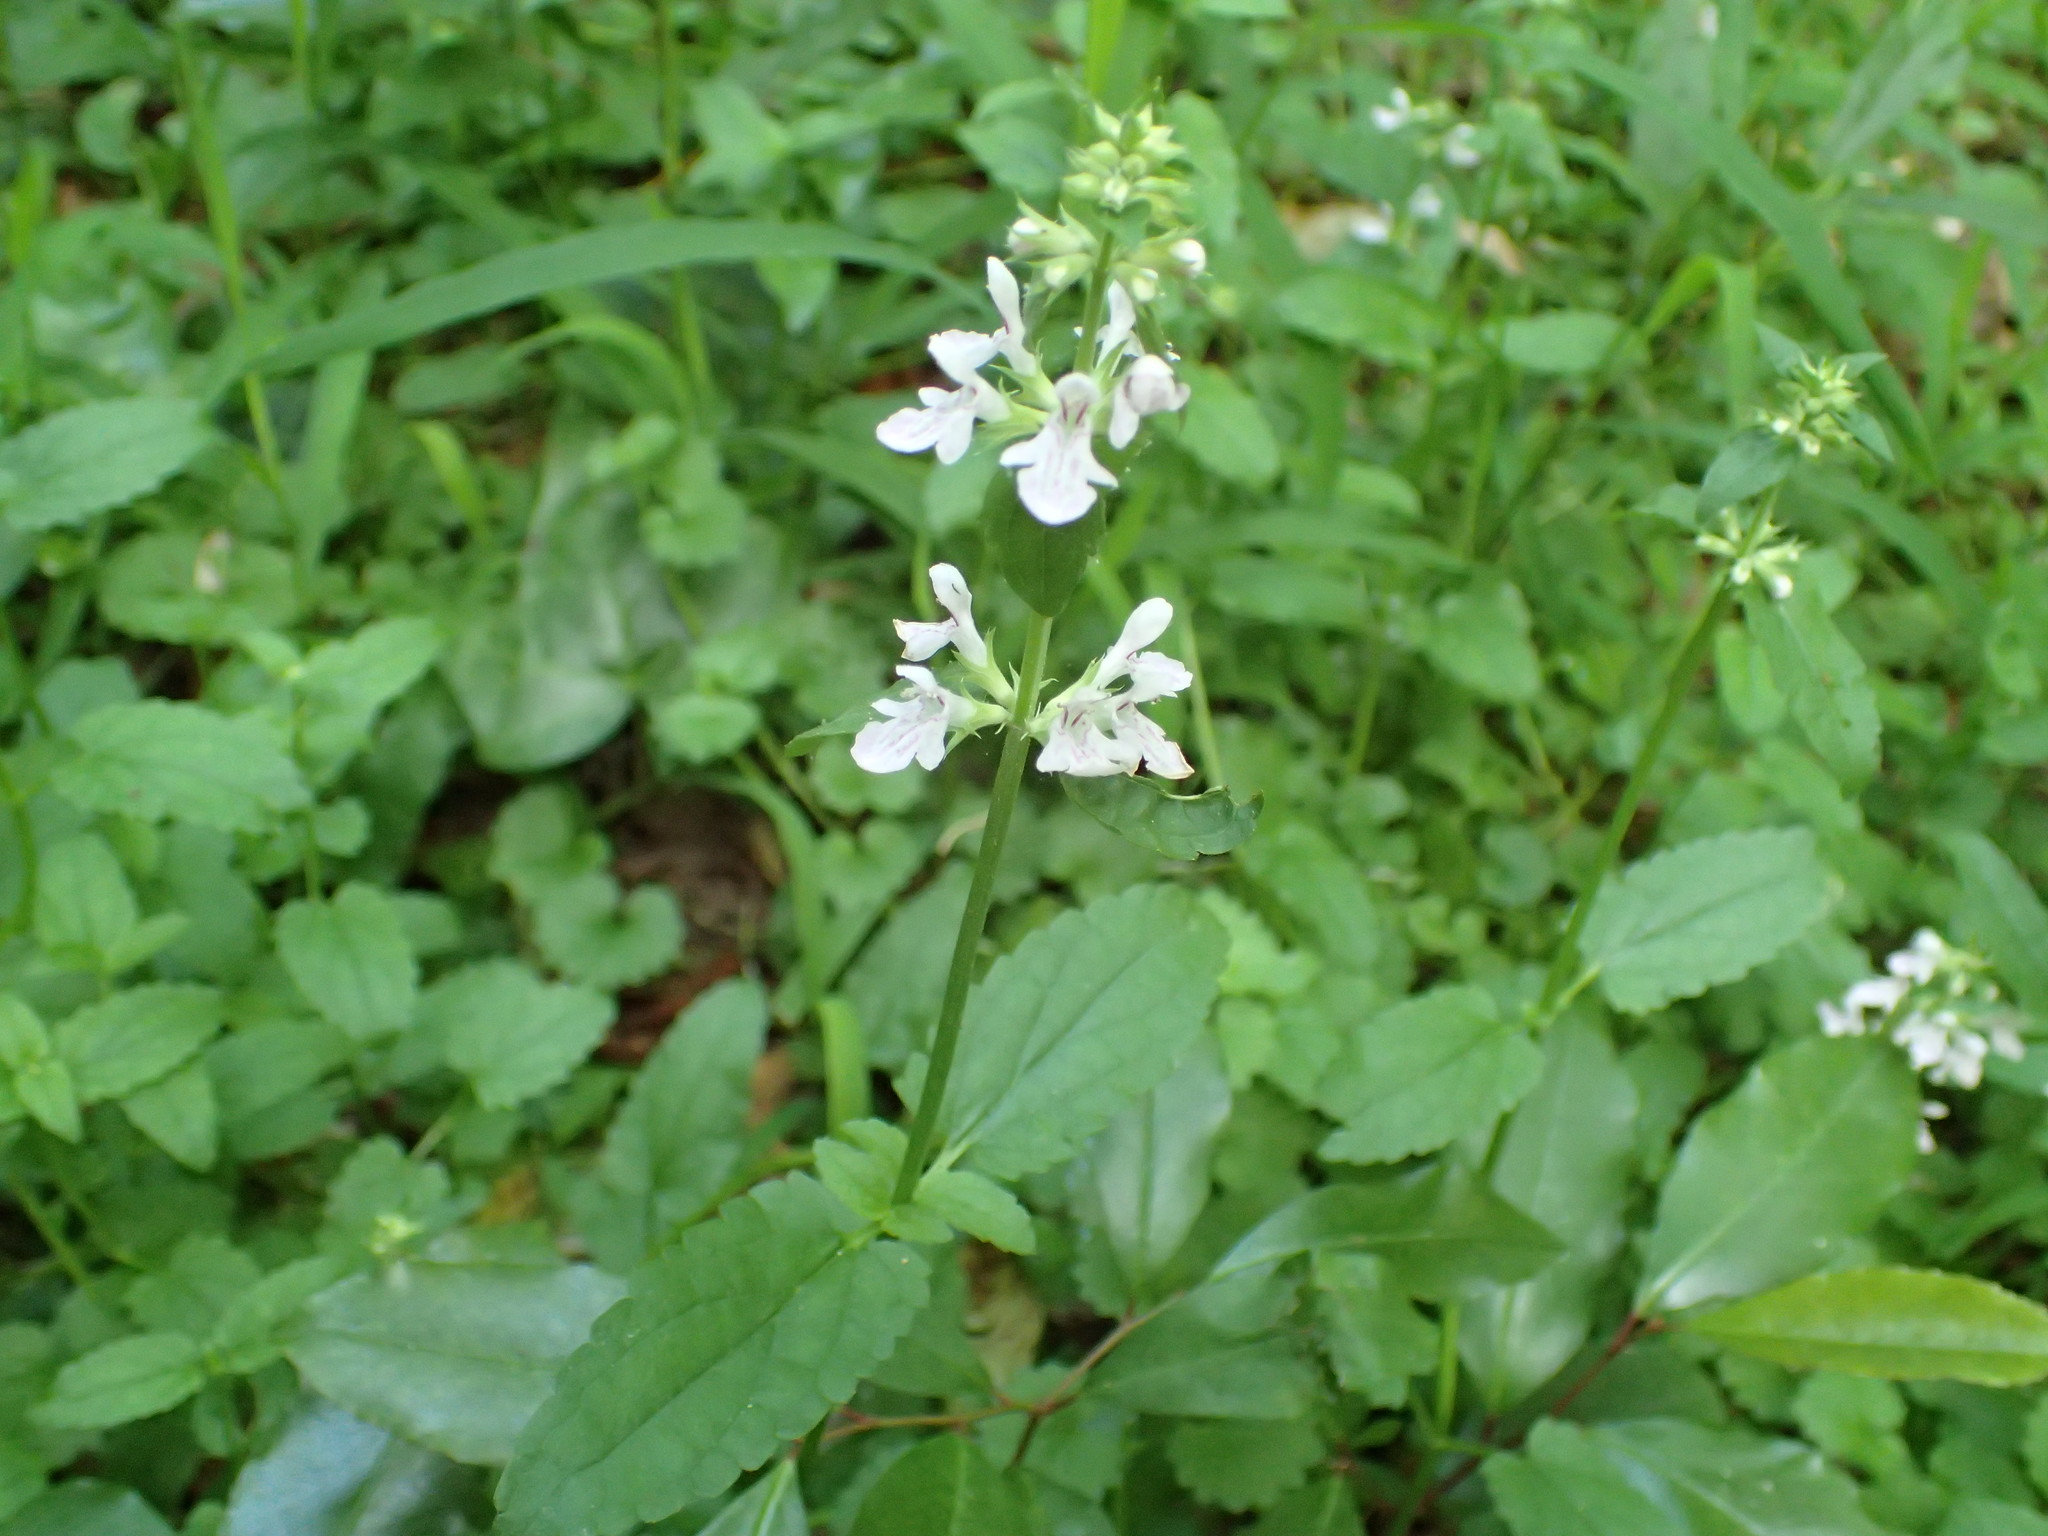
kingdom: Plantae
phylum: Tracheophyta
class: Magnoliopsida
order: Lamiales
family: Lamiaceae
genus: Stachys
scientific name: Stachys floridana
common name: Florida betony
